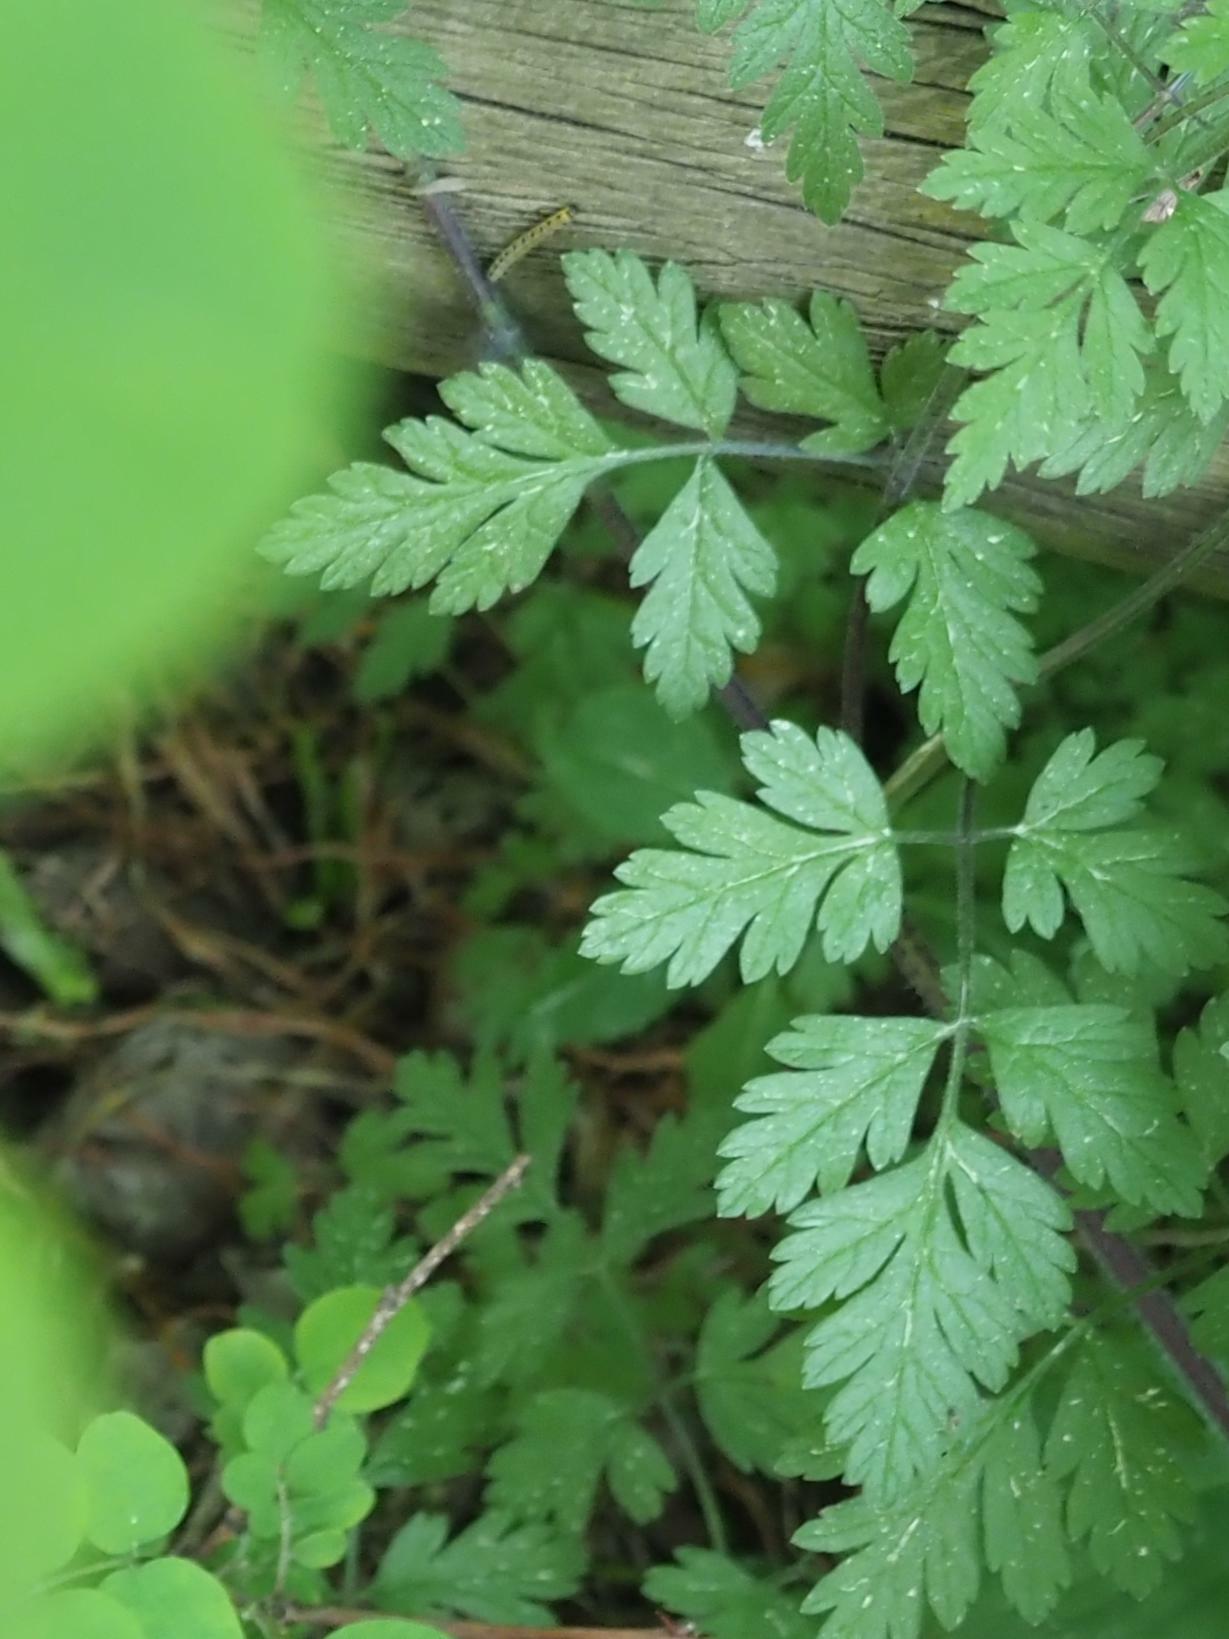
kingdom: Plantae
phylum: Tracheophyta
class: Magnoliopsida
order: Apiales
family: Apiaceae
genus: Chaerophyllum
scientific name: Chaerophyllum temulum
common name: Rough chervil
